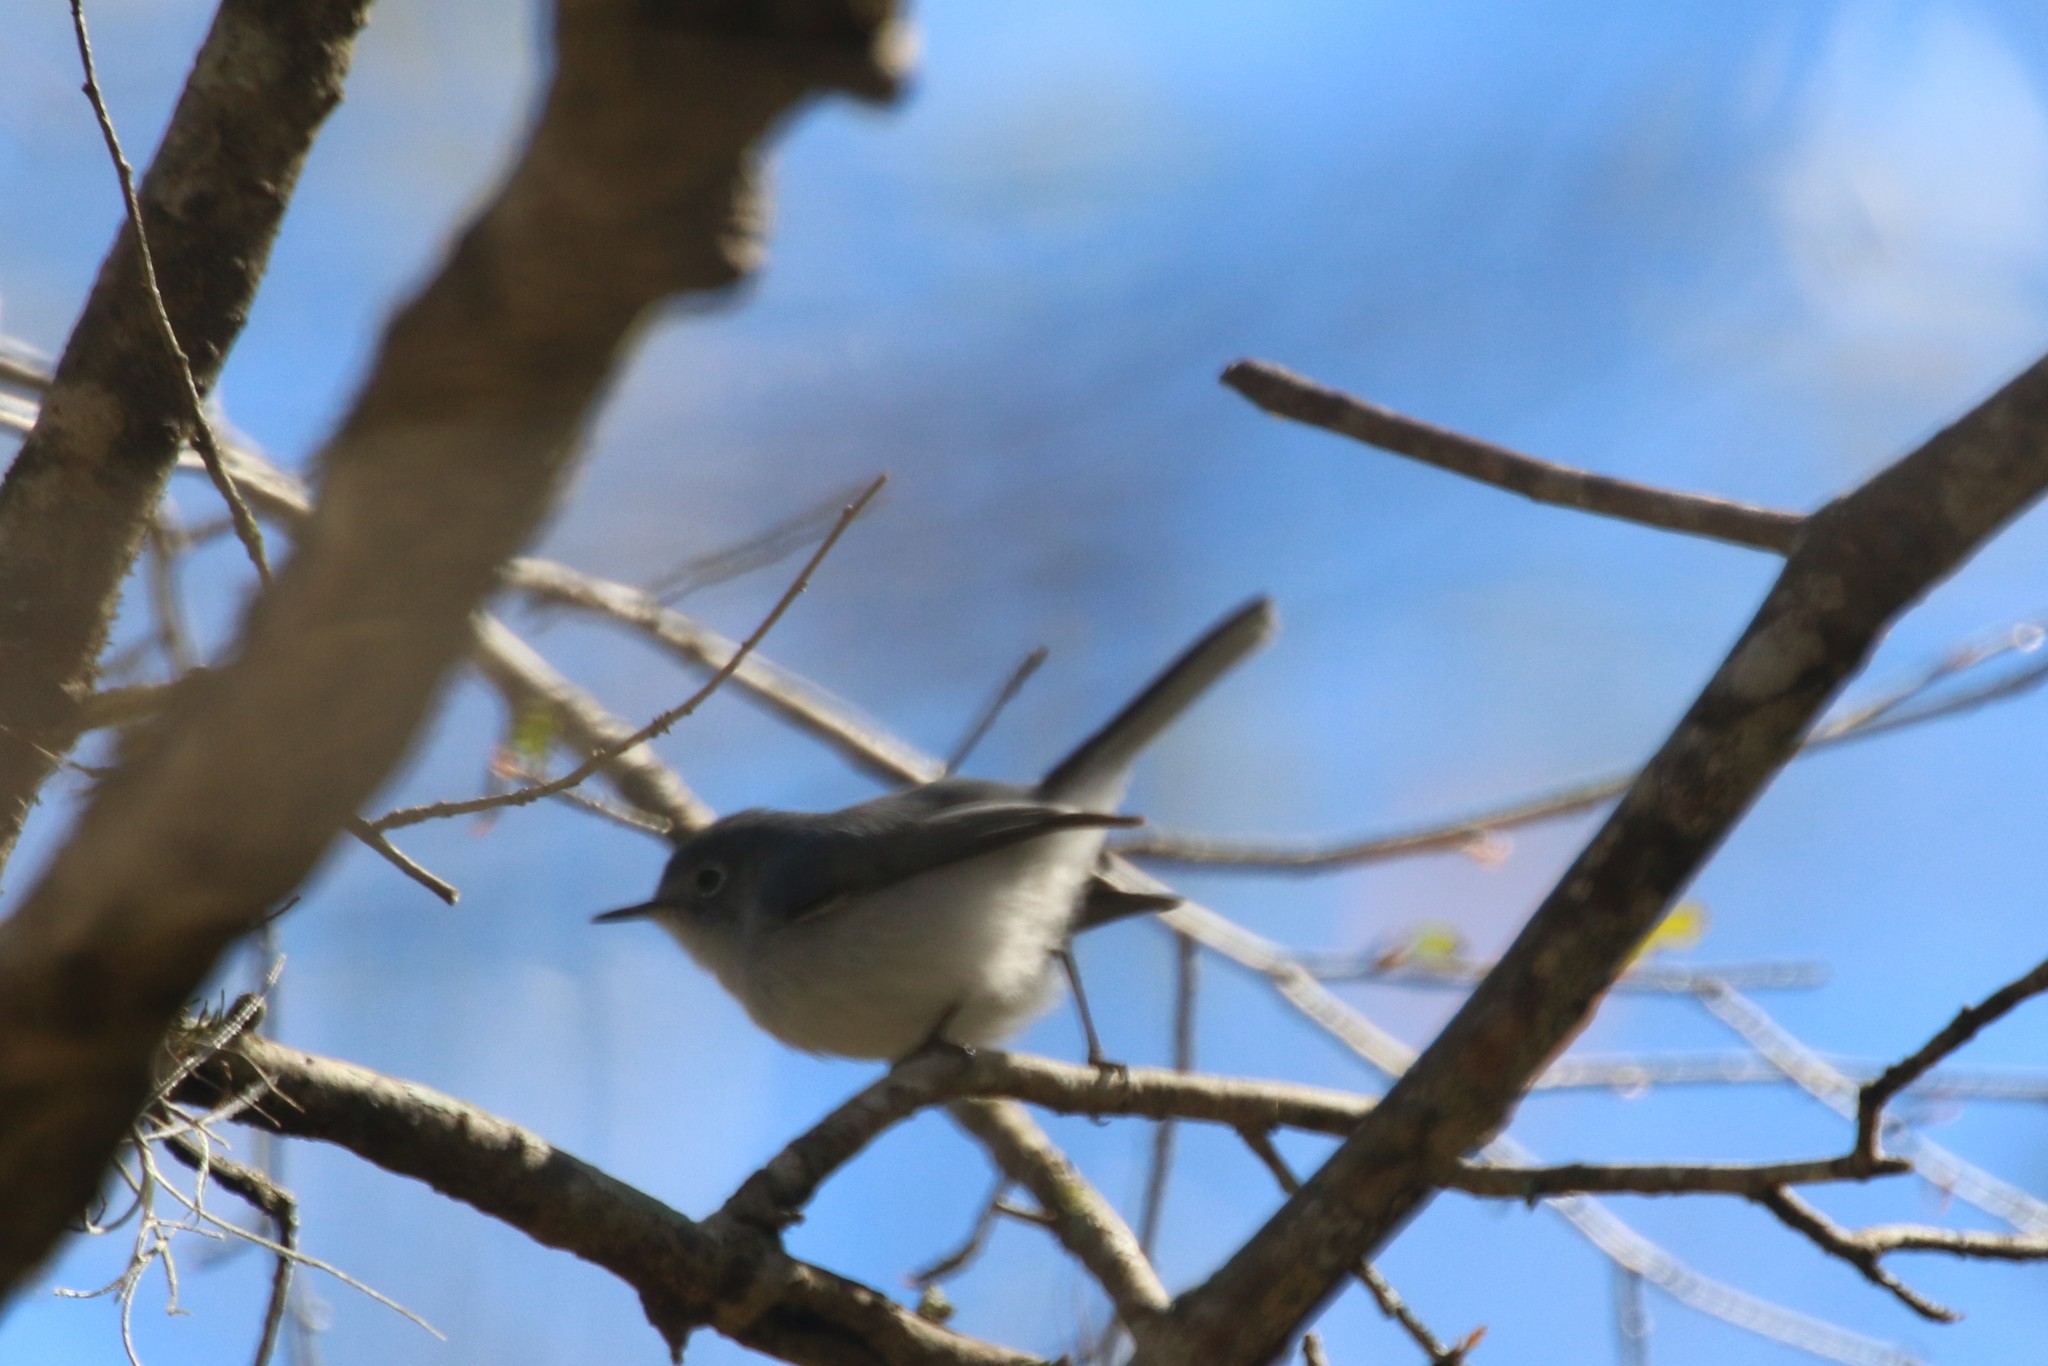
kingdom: Animalia
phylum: Chordata
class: Aves
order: Passeriformes
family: Polioptilidae
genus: Polioptila
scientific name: Polioptila caerulea
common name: Blue-gray gnatcatcher
